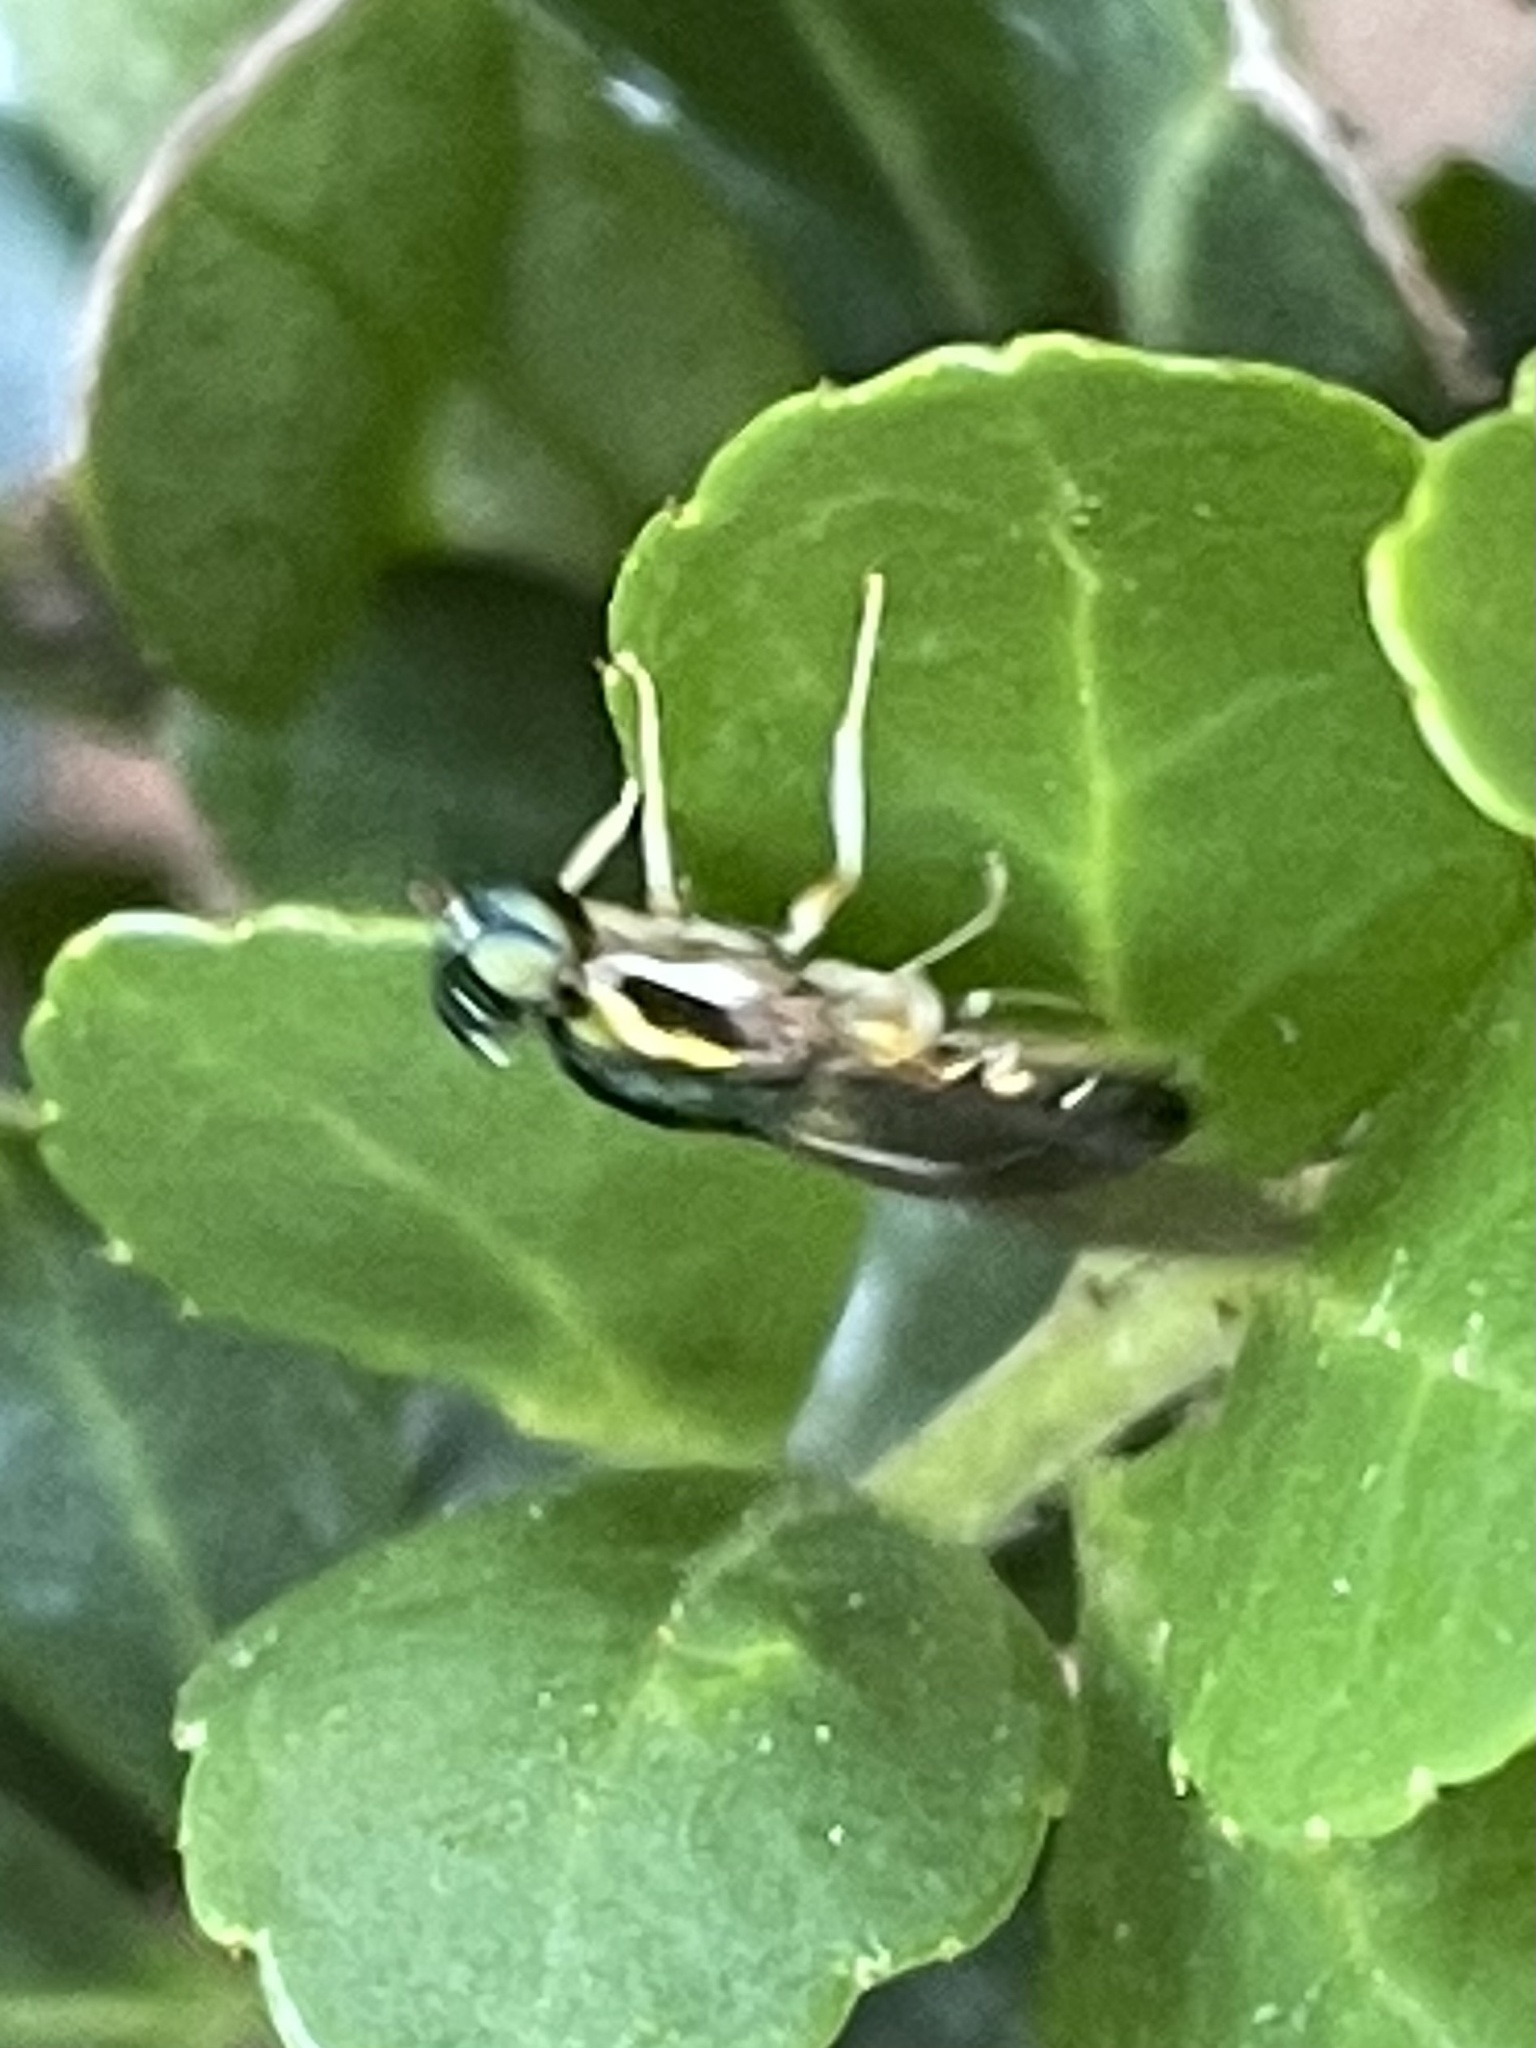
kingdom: Animalia
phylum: Arthropoda
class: Insecta
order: Diptera
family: Stratiomyidae
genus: Merosargus
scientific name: Merosargus caeruleifrons
